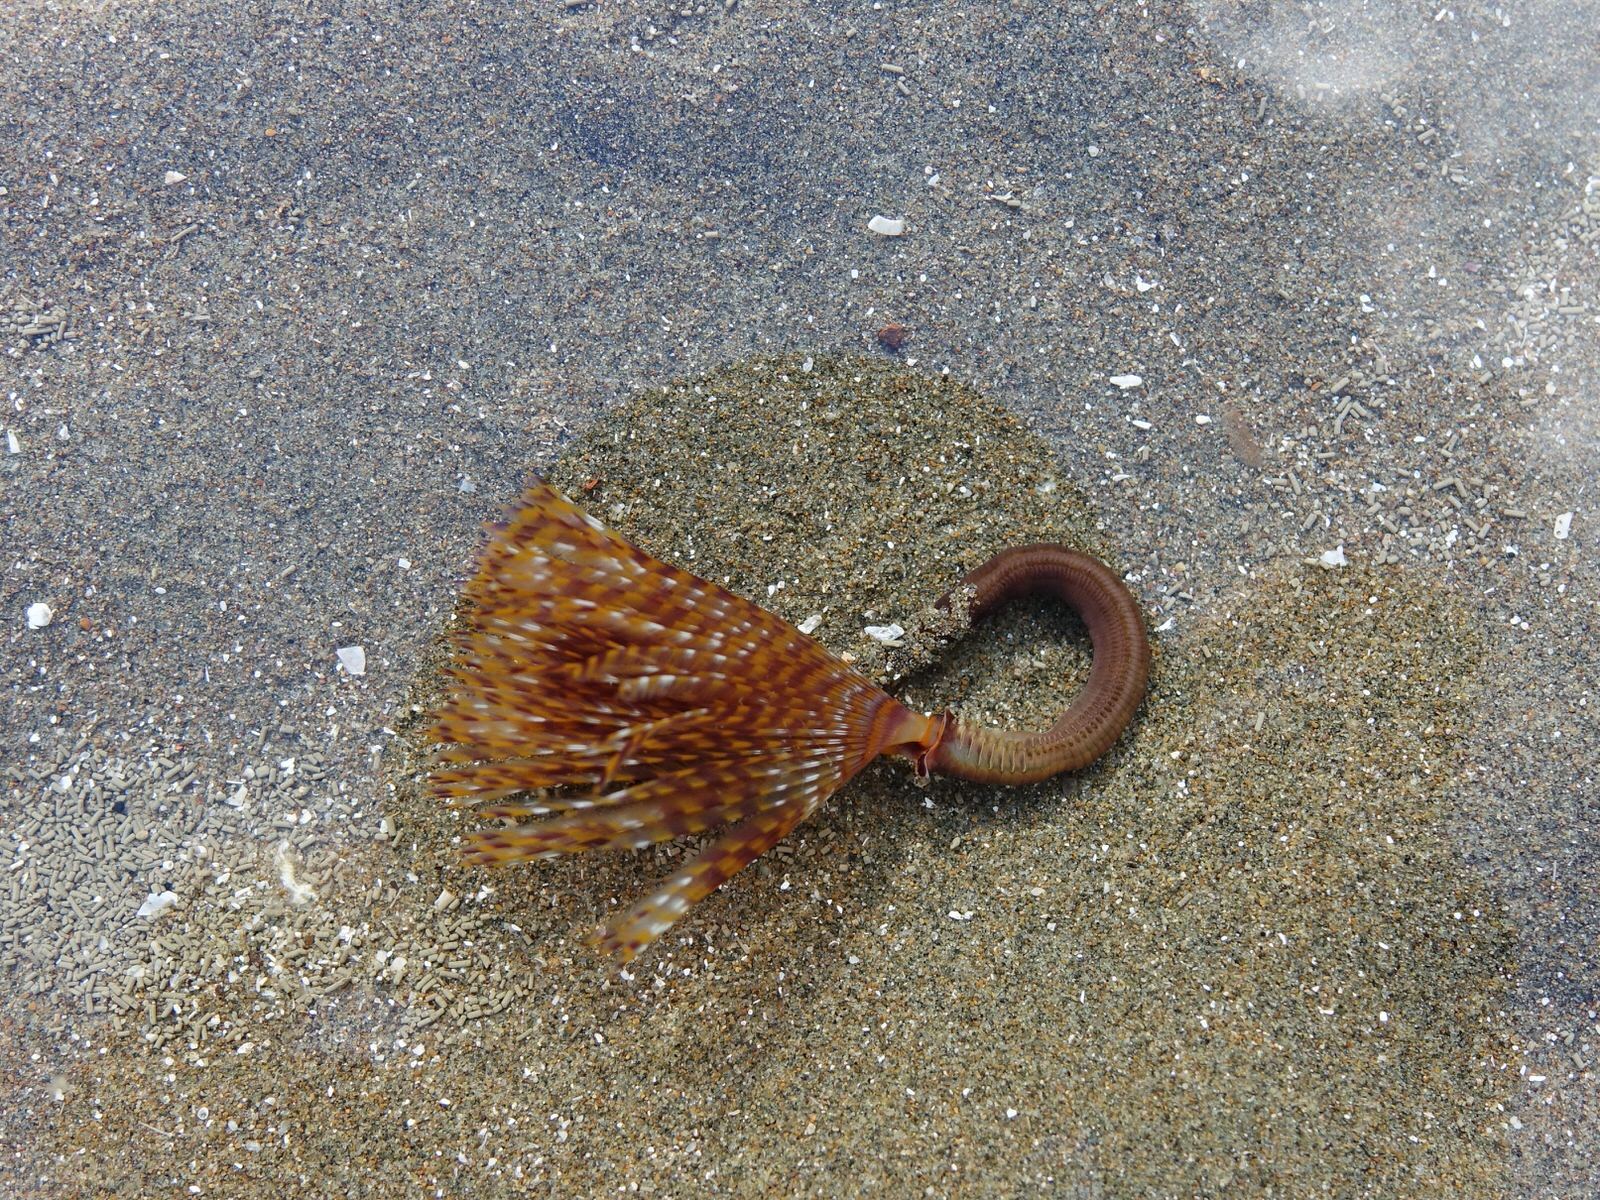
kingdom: Animalia
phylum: Annelida
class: Polychaeta
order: Sabellida
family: Sabellidae
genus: Sabella
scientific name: Sabella spallanzanii
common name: Feather duster worm
